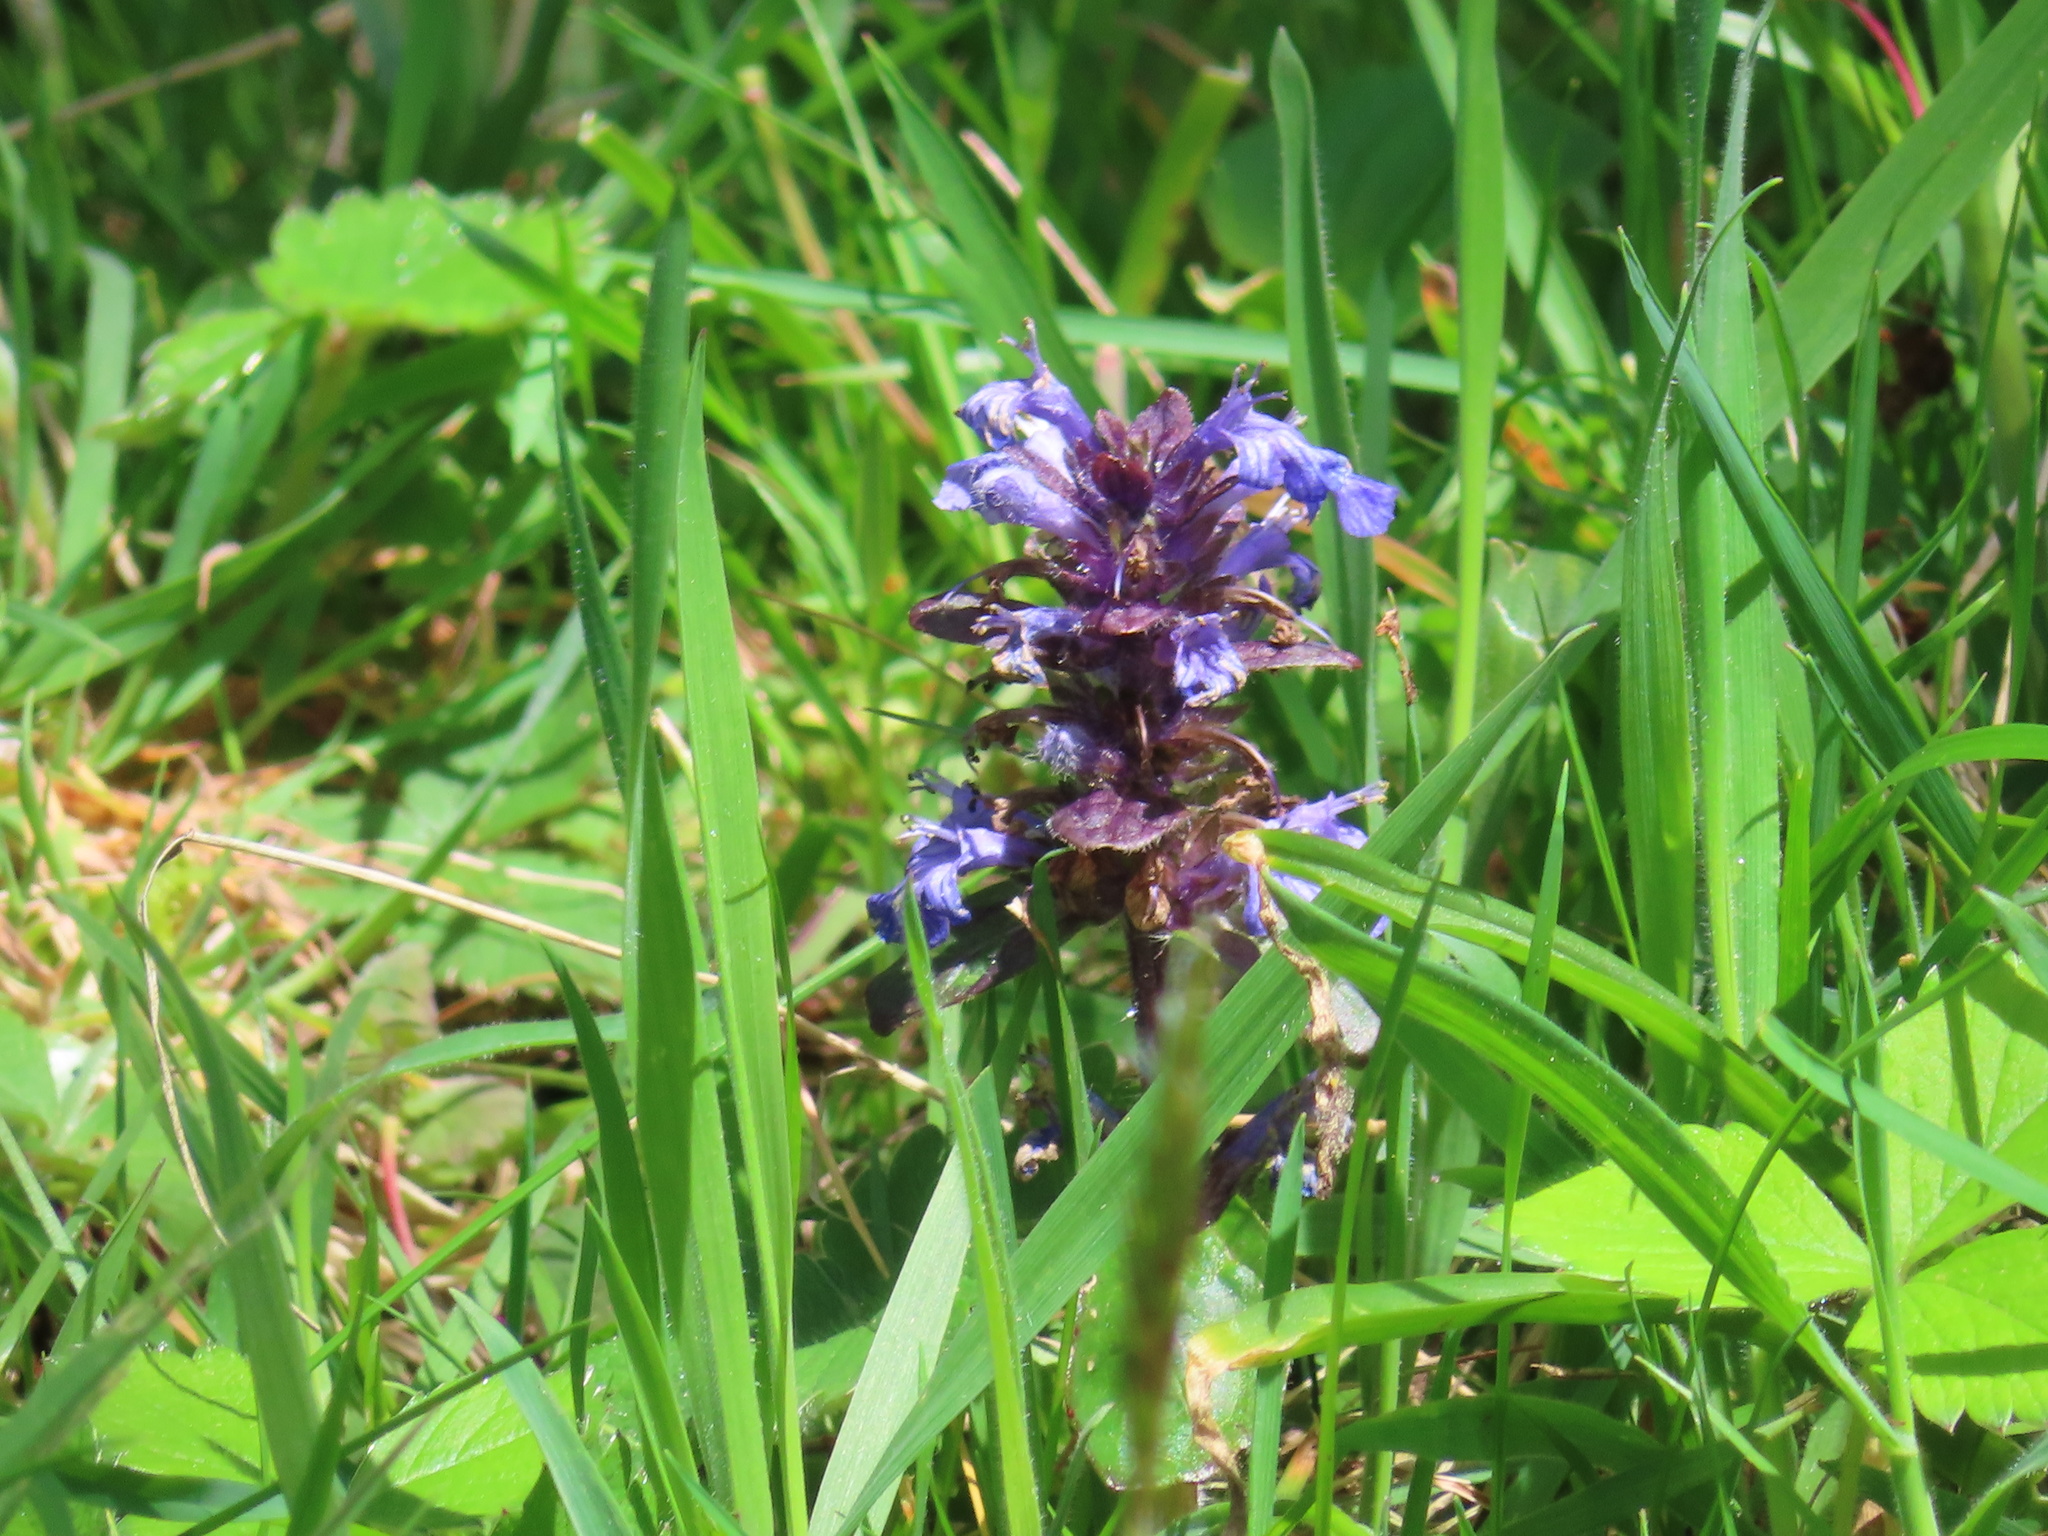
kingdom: Plantae
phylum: Tracheophyta
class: Magnoliopsida
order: Lamiales
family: Lamiaceae
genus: Ajuga
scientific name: Ajuga reptans
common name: Bugle
